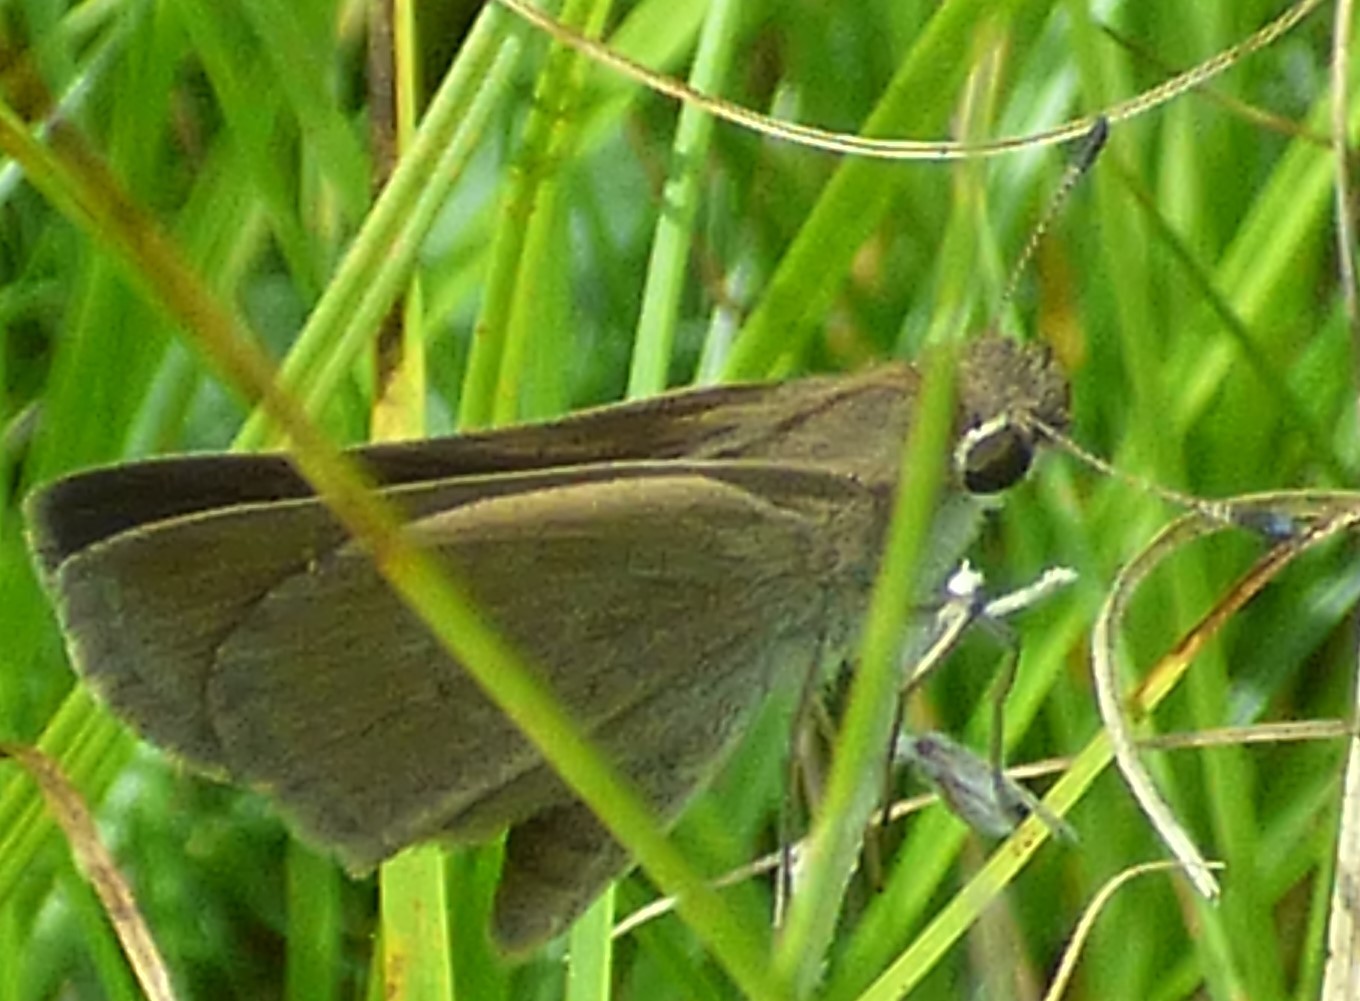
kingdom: Animalia
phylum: Arthropoda
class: Insecta
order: Lepidoptera
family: Hesperiidae
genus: Lerodea
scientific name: Lerodea eufala
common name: Eufala skipper
